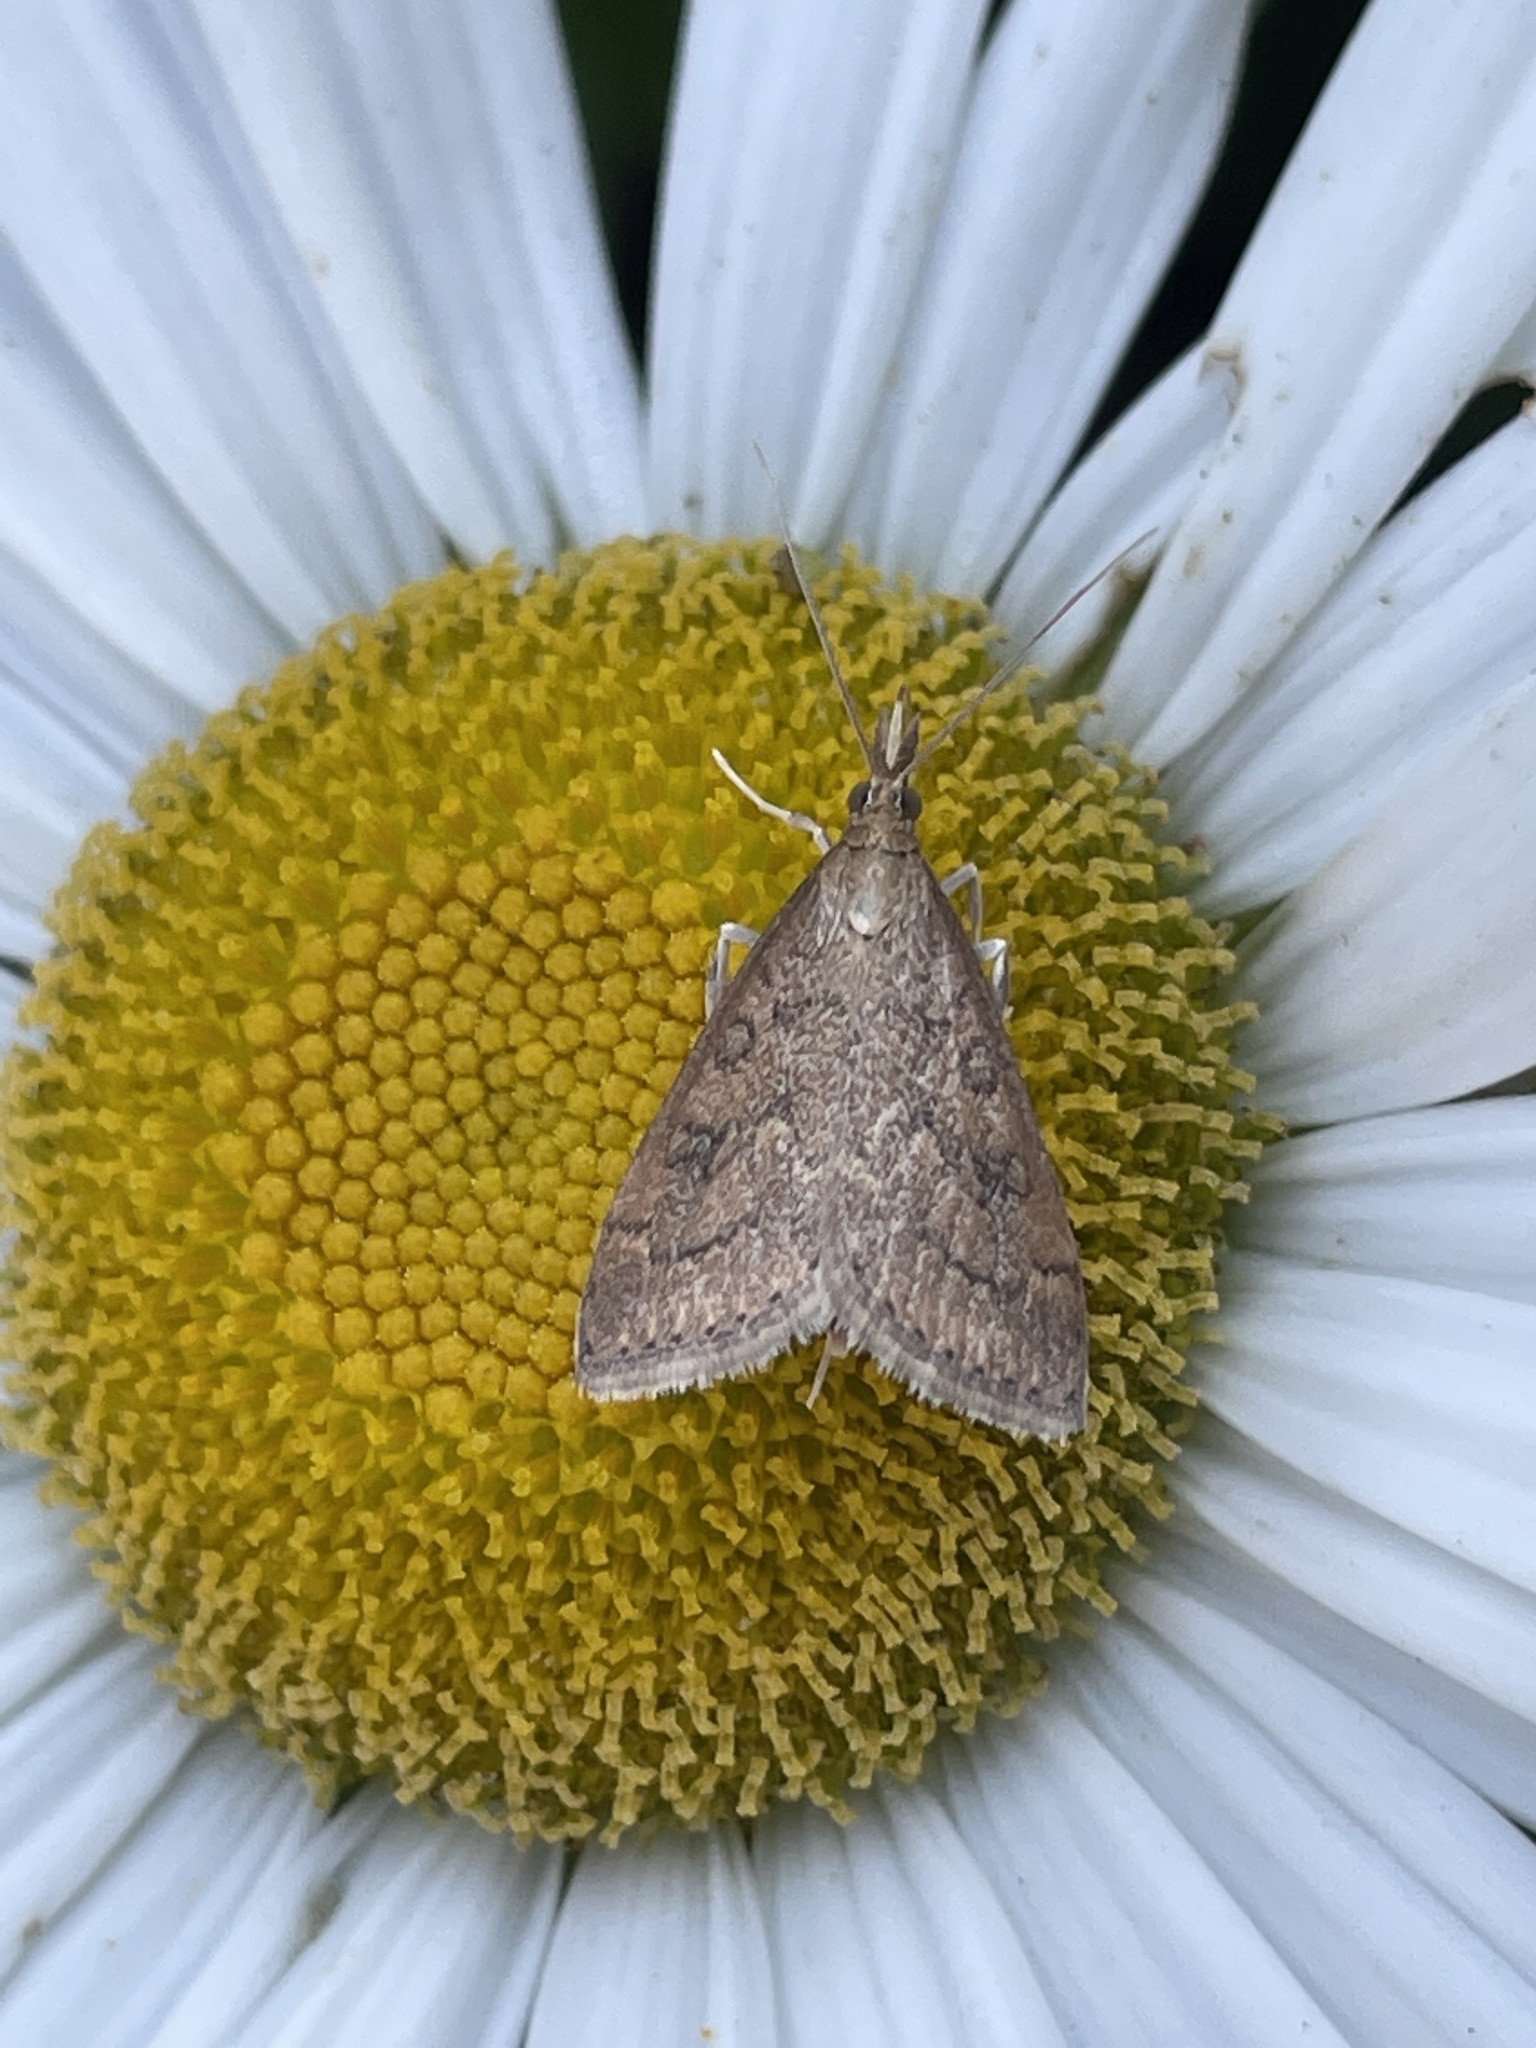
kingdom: Animalia
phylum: Arthropoda
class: Insecta
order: Lepidoptera
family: Crambidae
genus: Udea
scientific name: Udea rubigalis
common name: Celery leaftier moth
